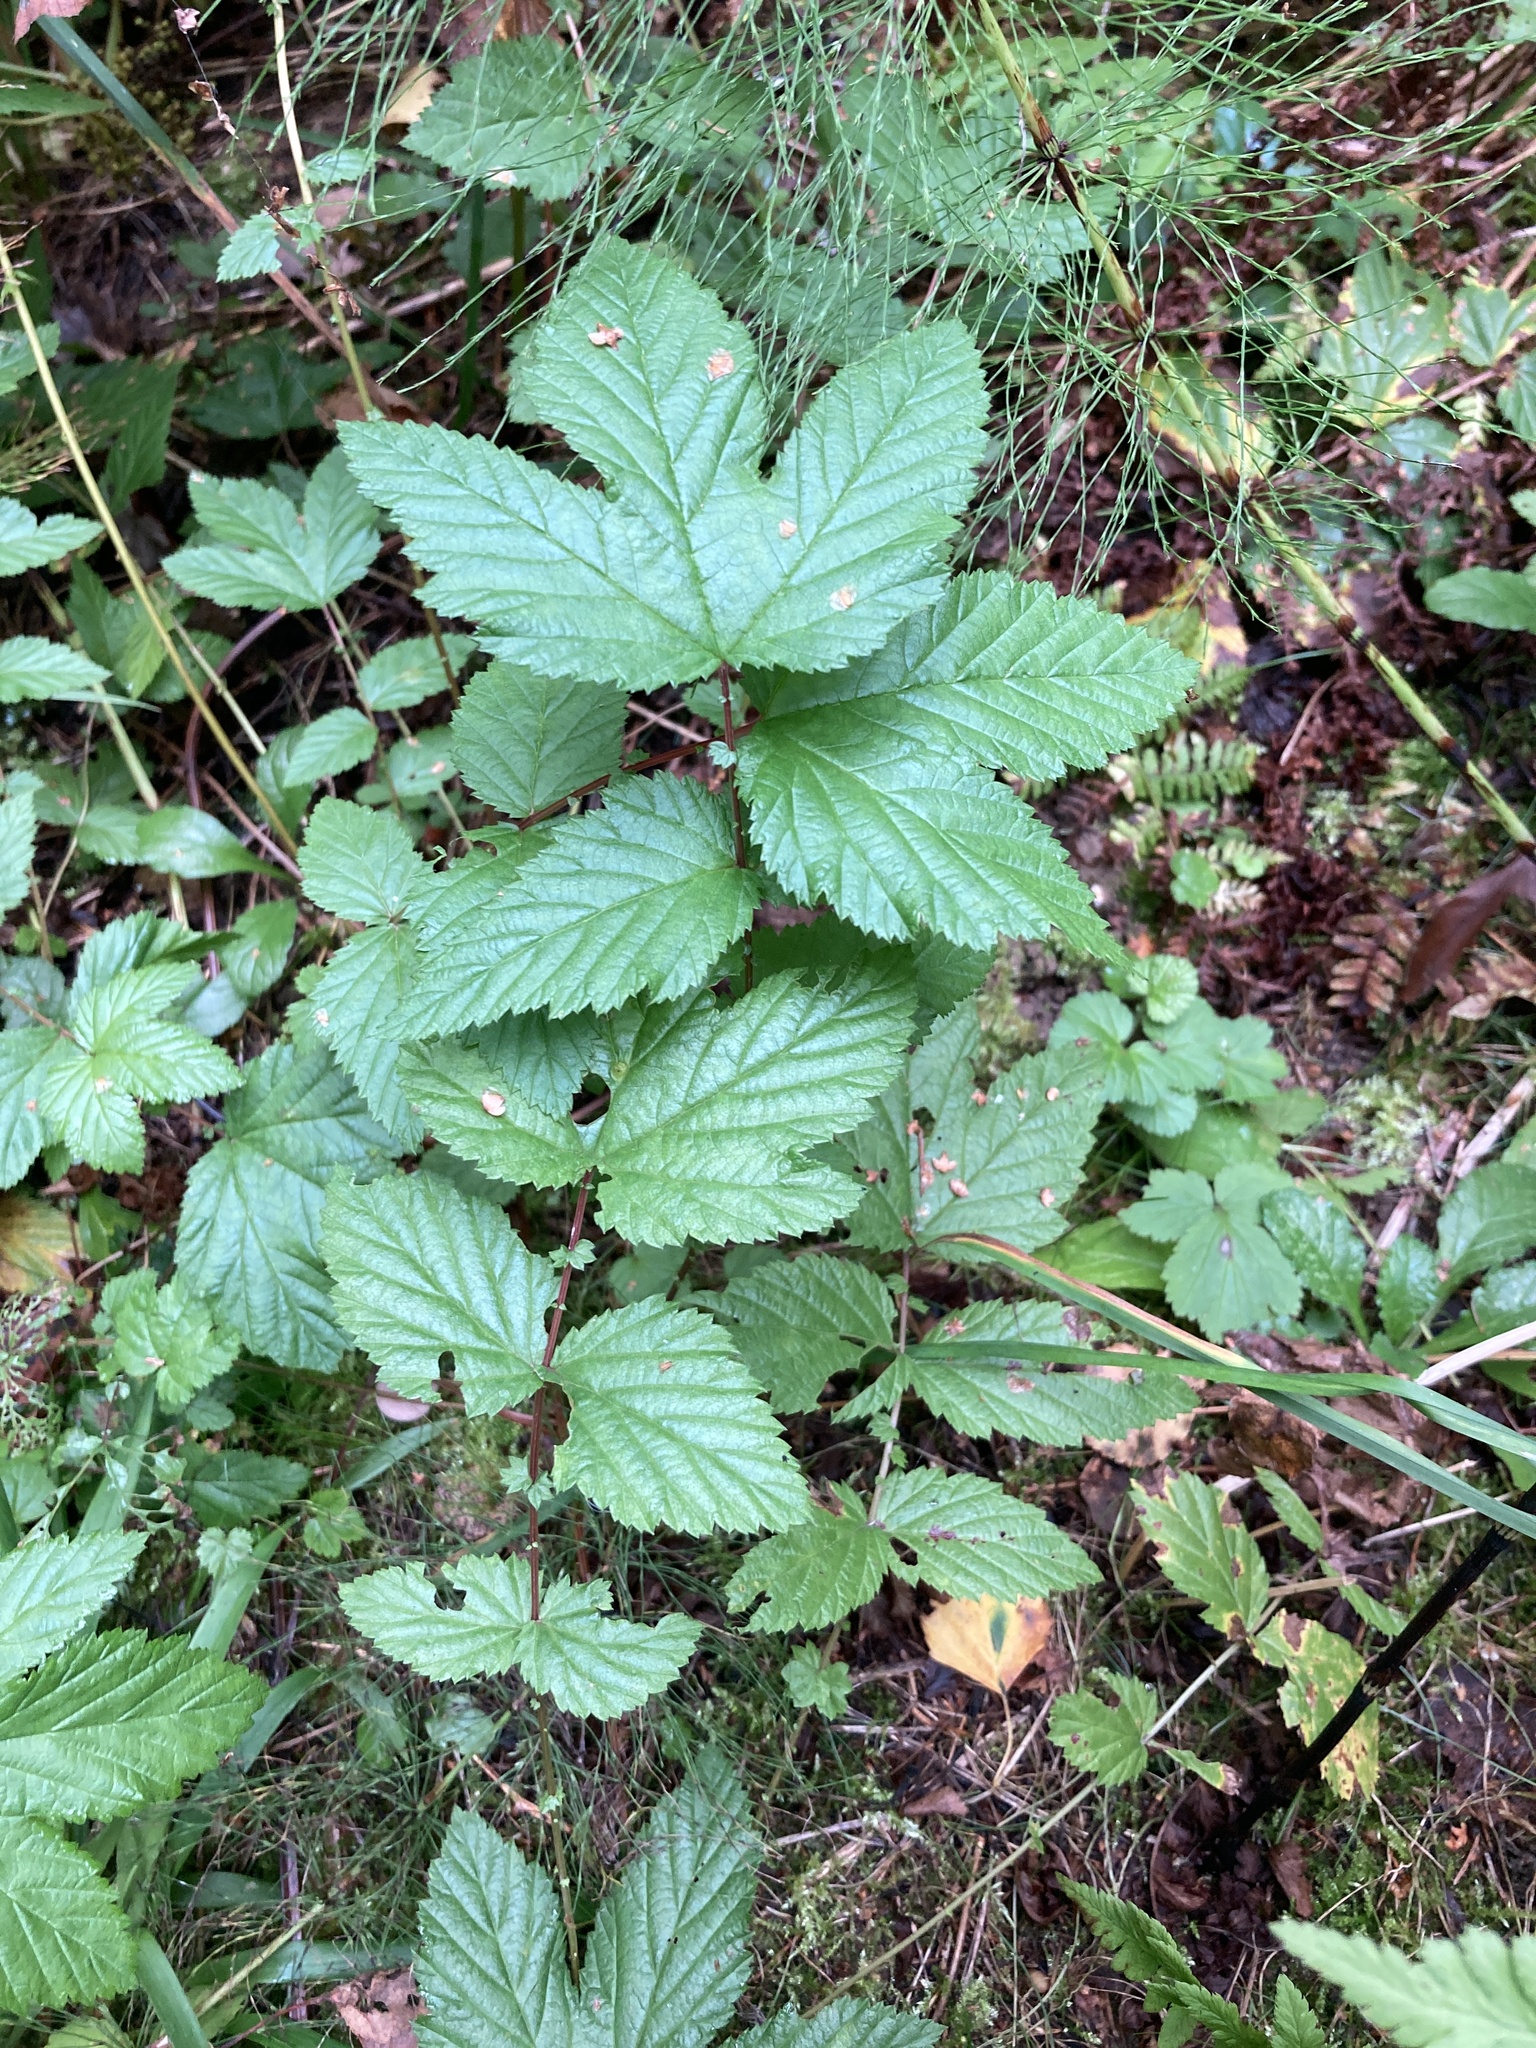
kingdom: Plantae
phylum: Tracheophyta
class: Magnoliopsida
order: Rosales
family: Rosaceae
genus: Filipendula
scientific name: Filipendula ulmaria
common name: Meadowsweet
